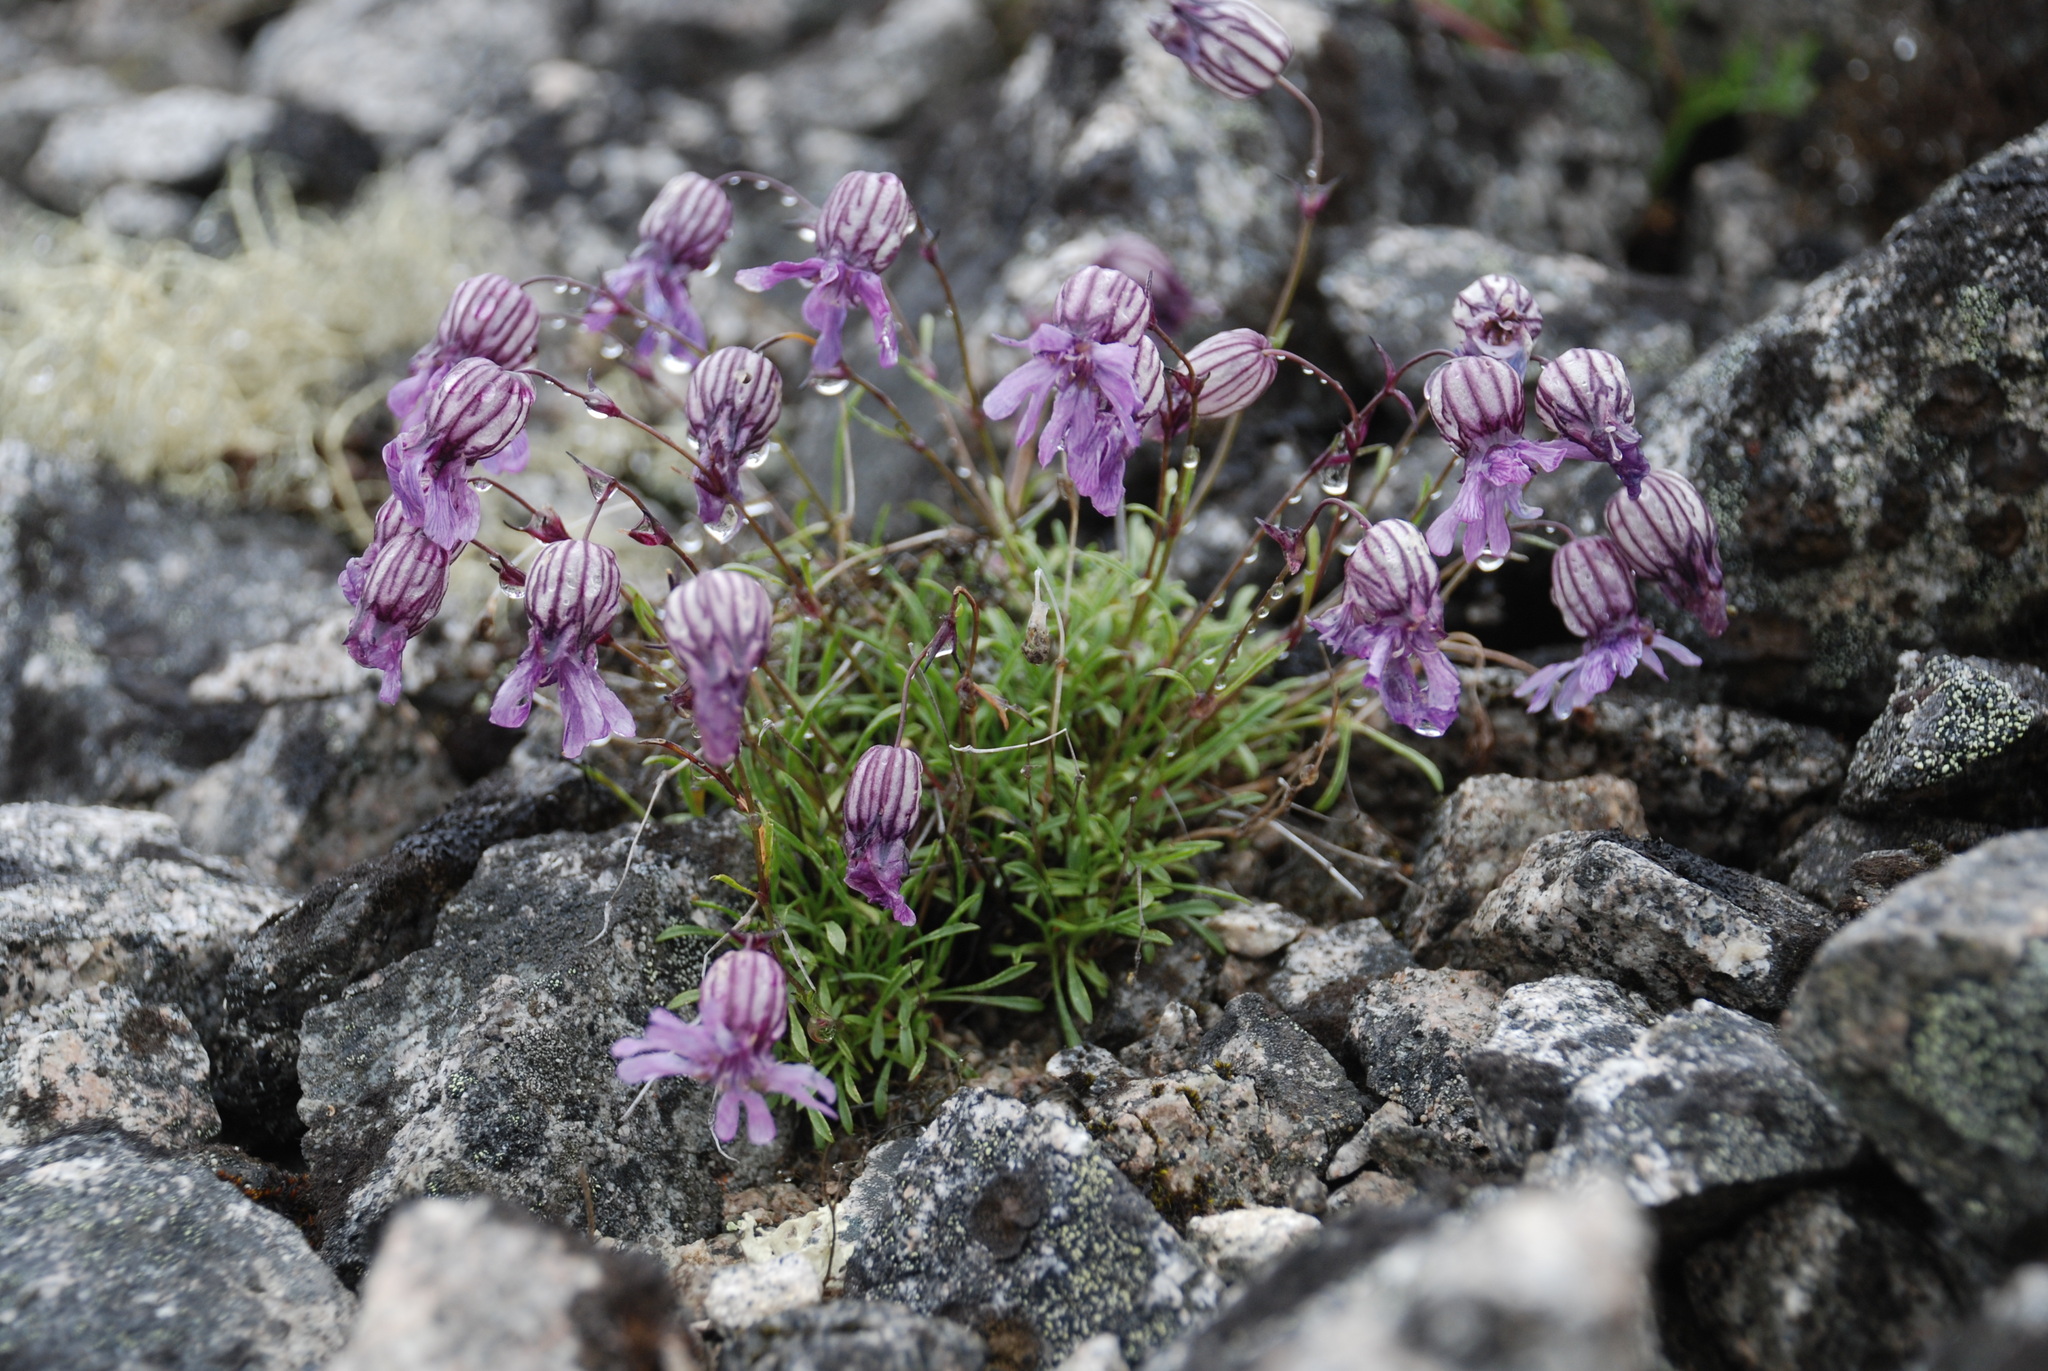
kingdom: Plantae
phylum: Tracheophyta
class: Magnoliopsida
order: Caryophyllales
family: Caryophyllaceae
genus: Silene
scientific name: Silene stenophylla
